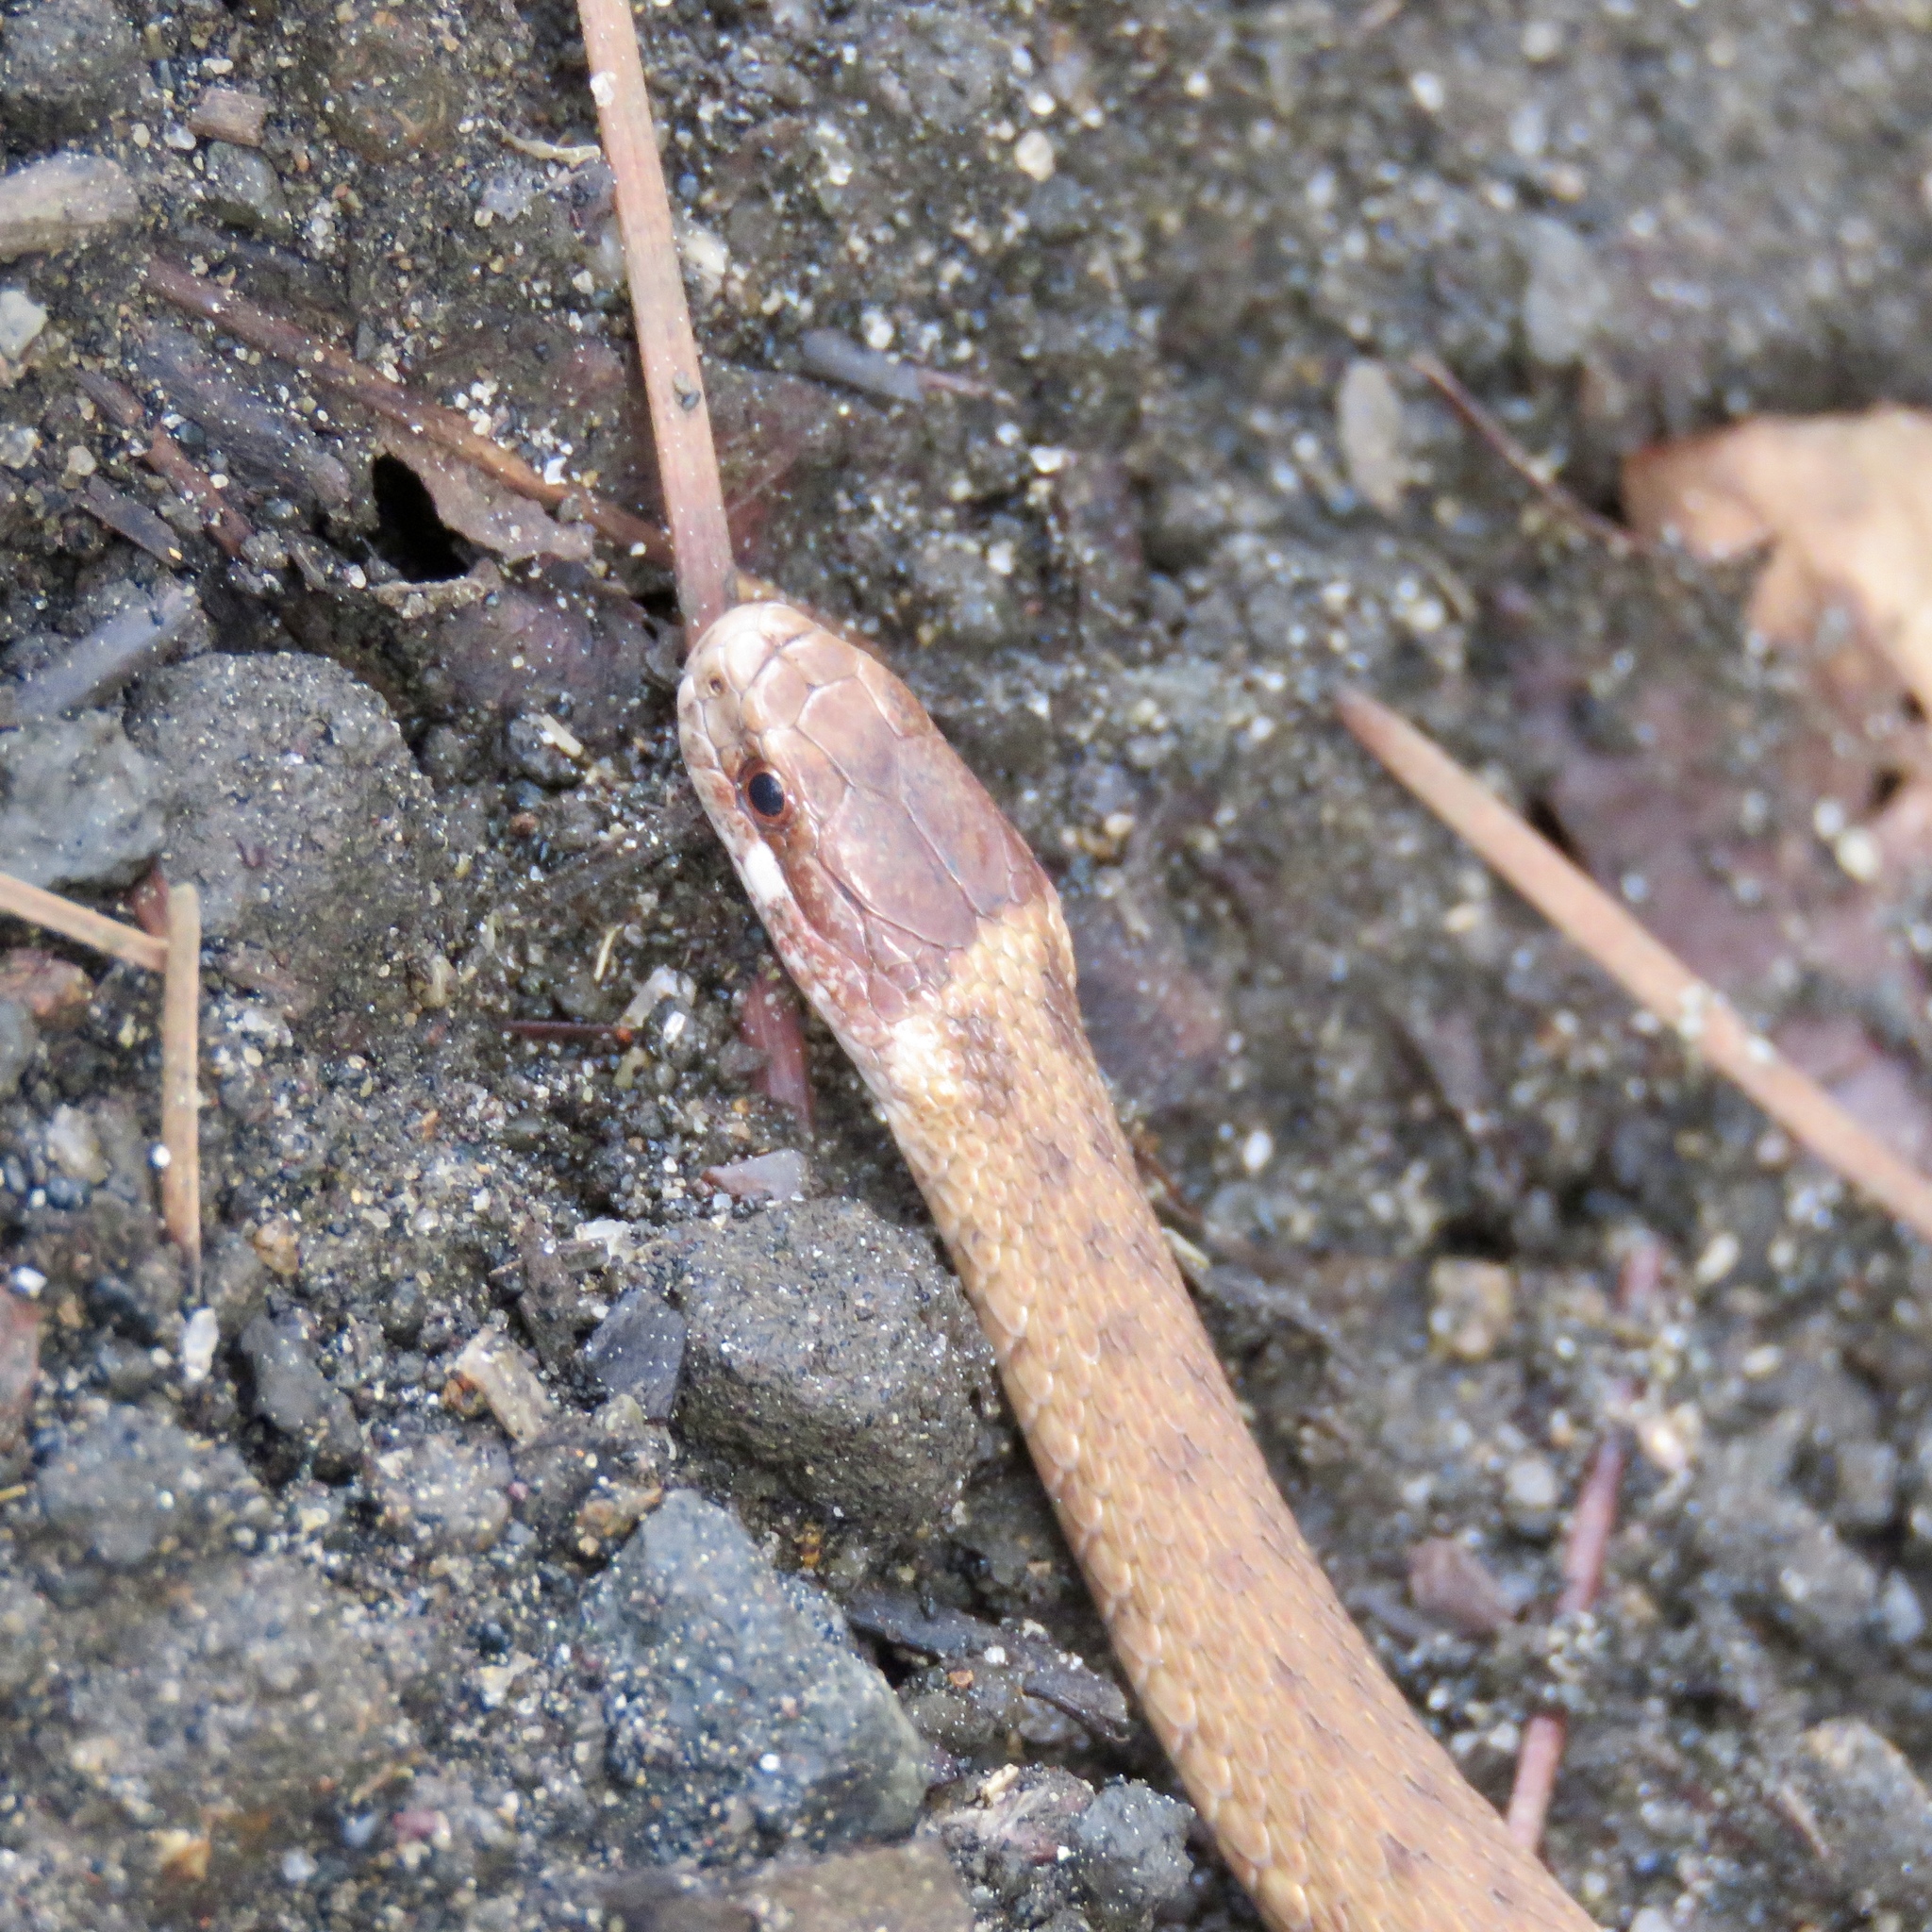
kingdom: Animalia
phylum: Chordata
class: Squamata
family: Colubridae
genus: Storeria
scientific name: Storeria occipitomaculata
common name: Redbelly snake
